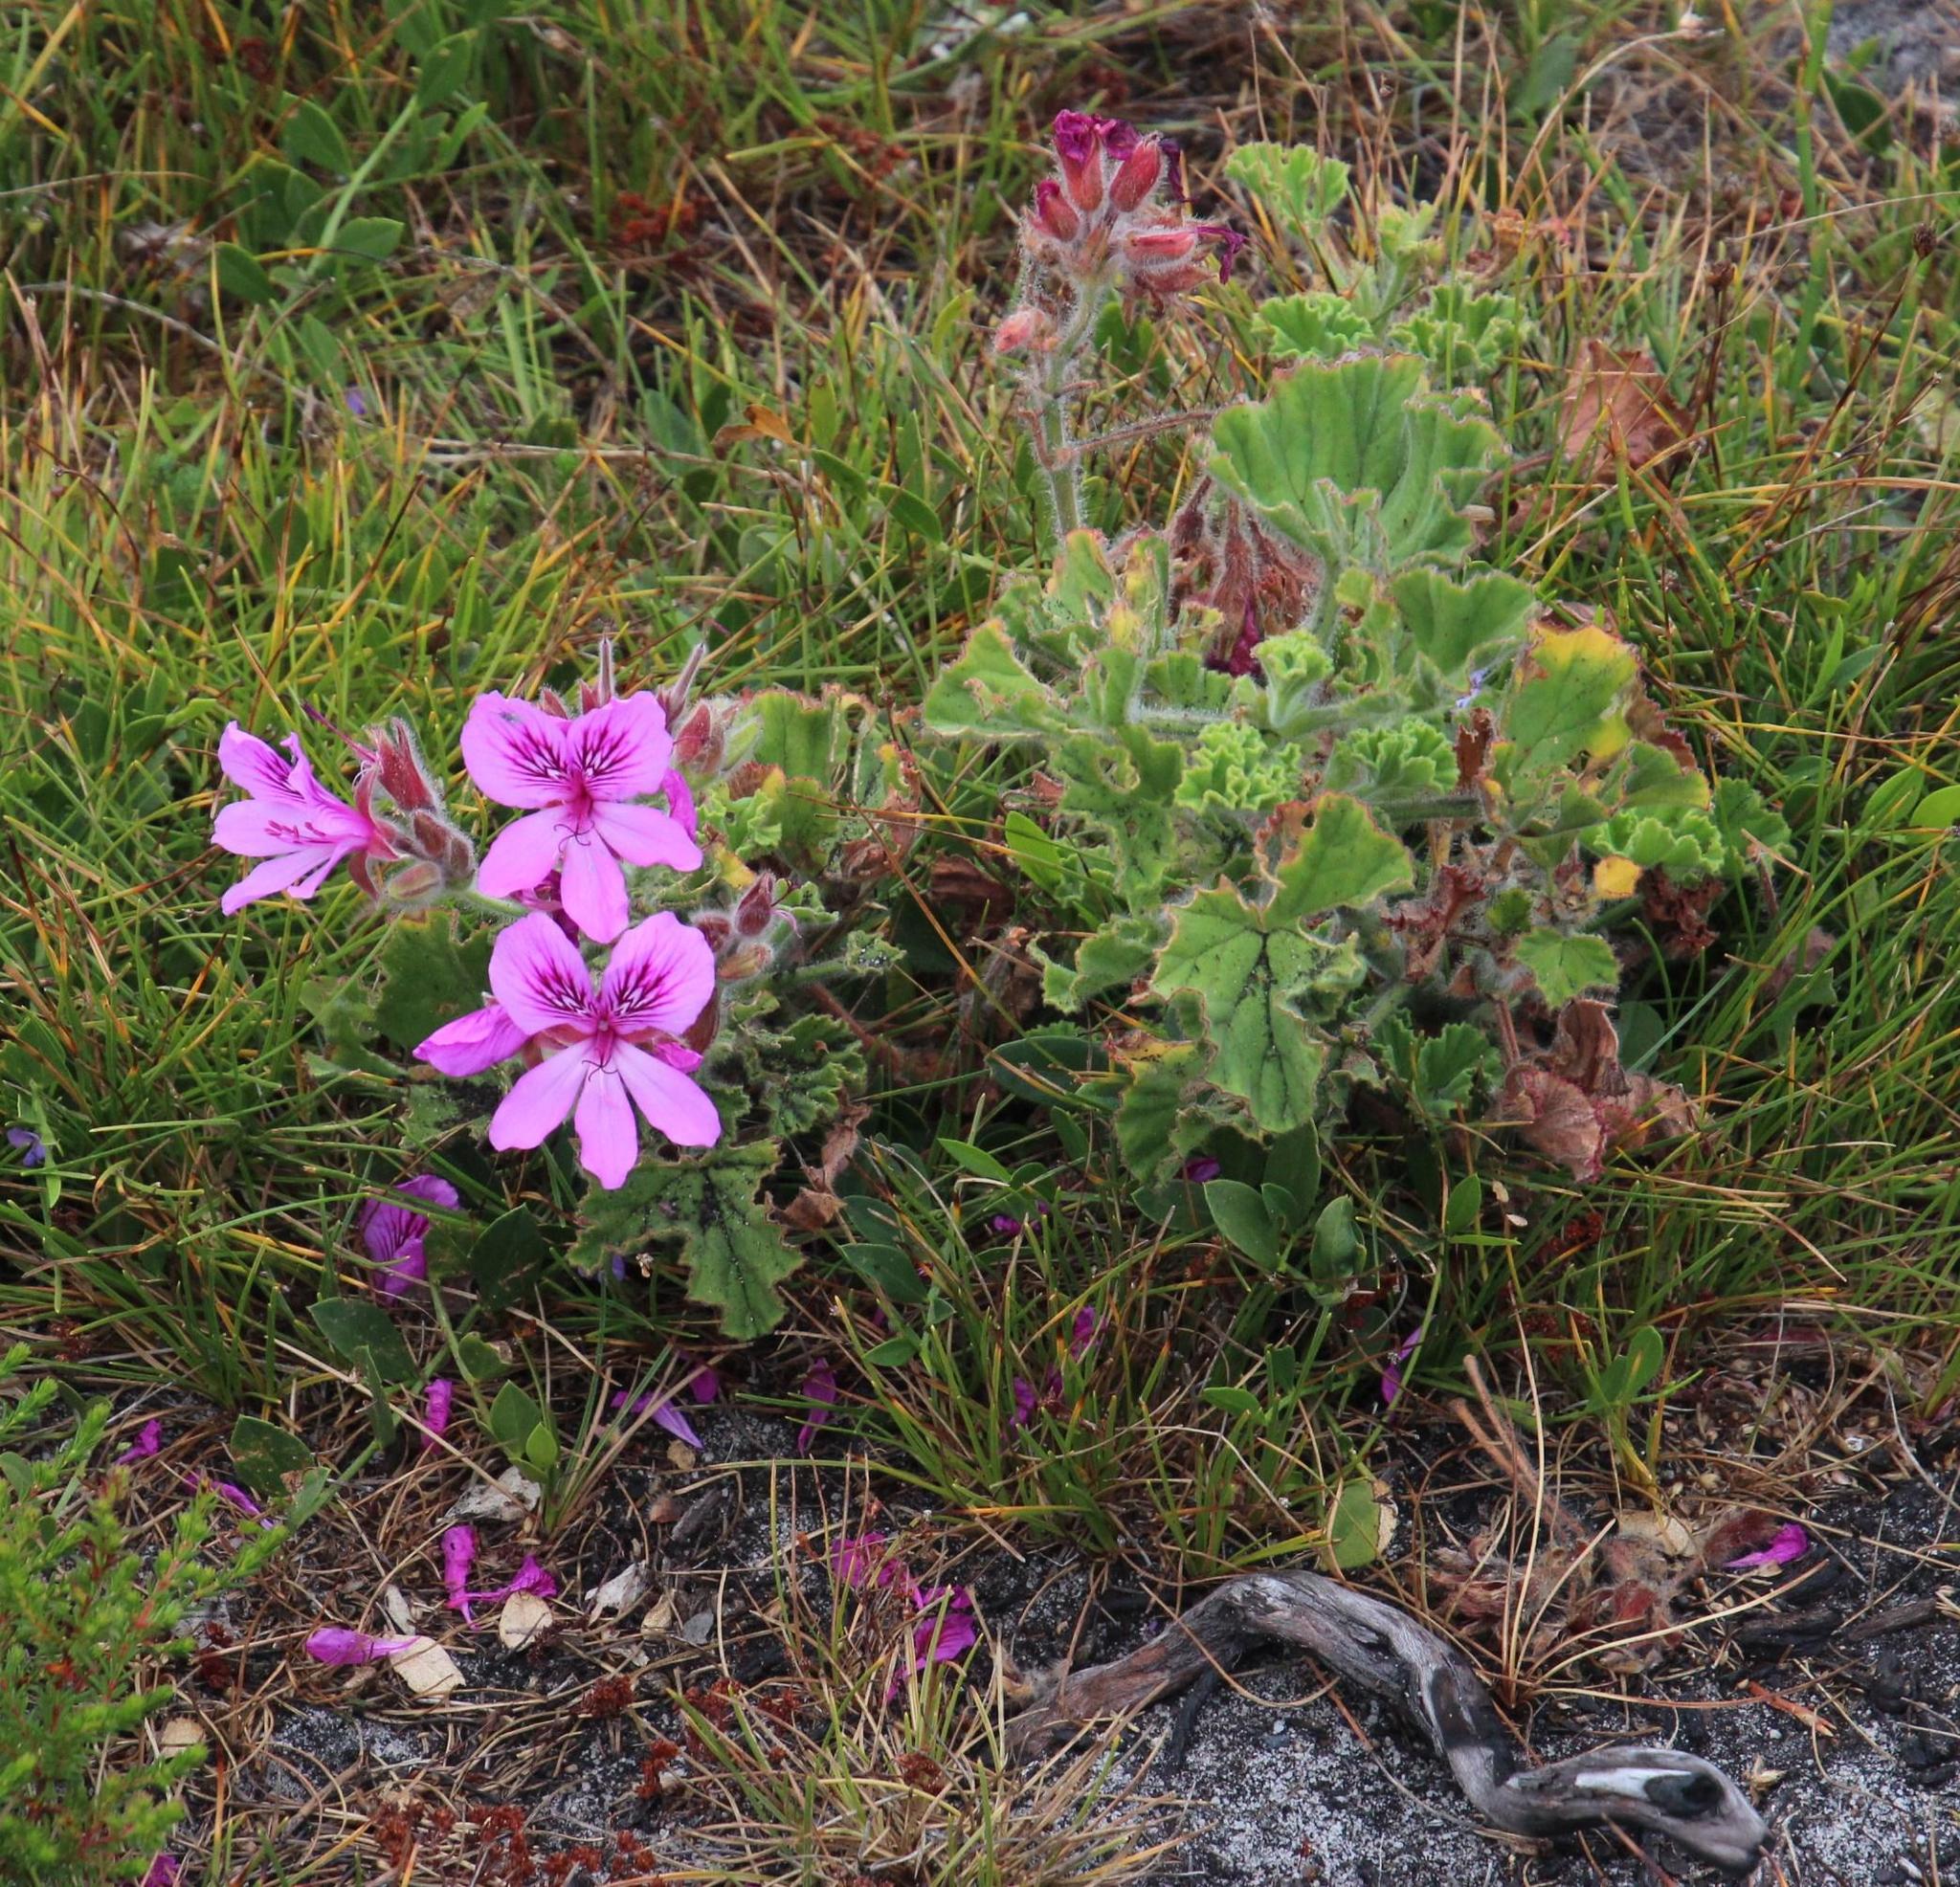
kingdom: Plantae
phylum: Tracheophyta
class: Magnoliopsida
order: Geraniales
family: Geraniaceae
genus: Pelargonium
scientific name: Pelargonium cucullatum
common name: Tree pelargonium
